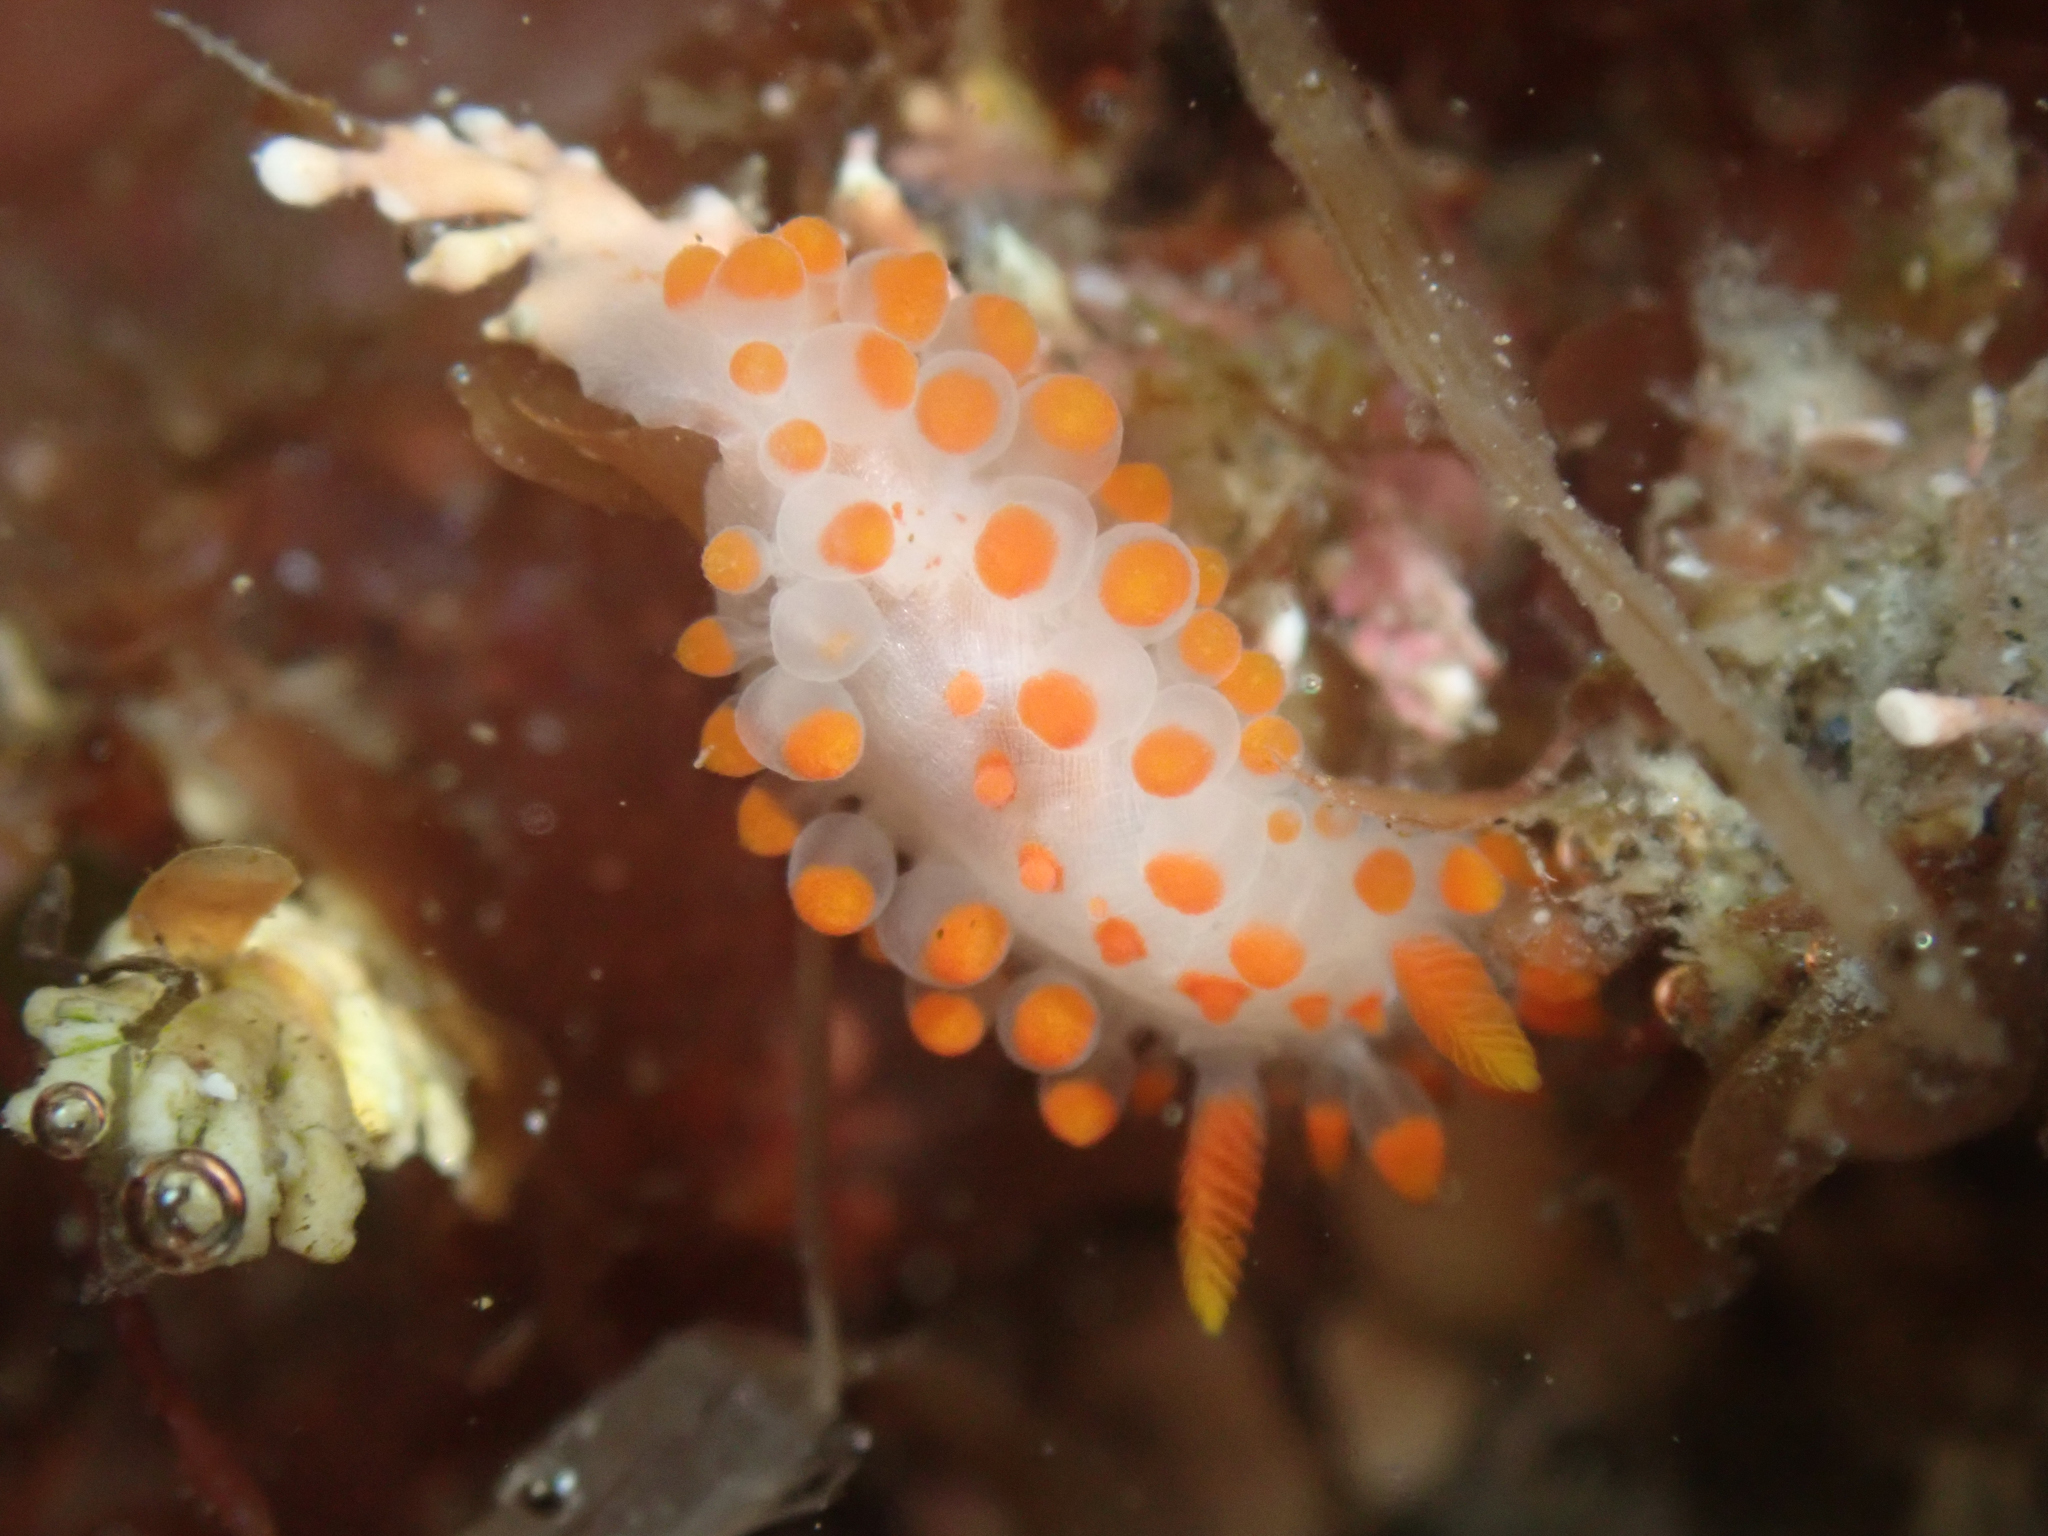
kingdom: Animalia
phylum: Mollusca
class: Gastropoda
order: Nudibranchia
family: Polyceridae
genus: Limacia
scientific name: Limacia mcdonaldi
